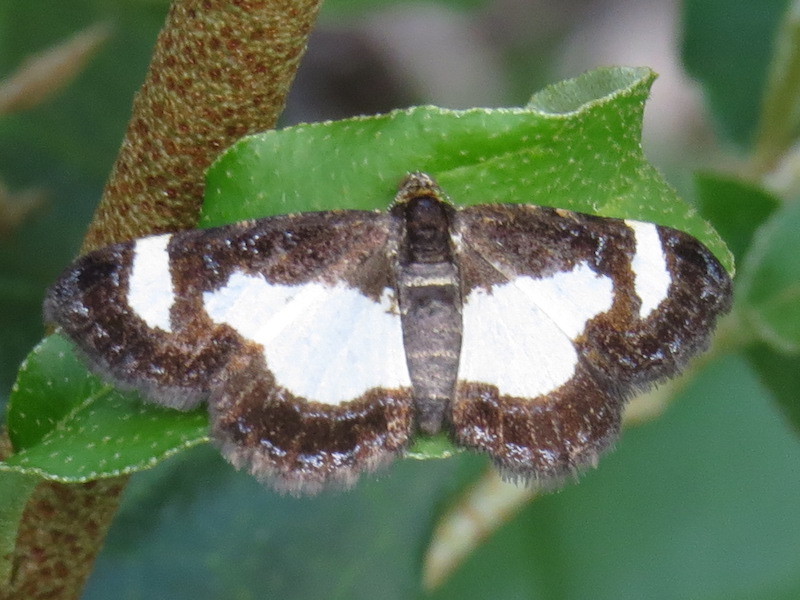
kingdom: Animalia
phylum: Arthropoda
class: Insecta
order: Lepidoptera
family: Geometridae
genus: Heliomata
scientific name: Heliomata cycladata
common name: Common spring moth
